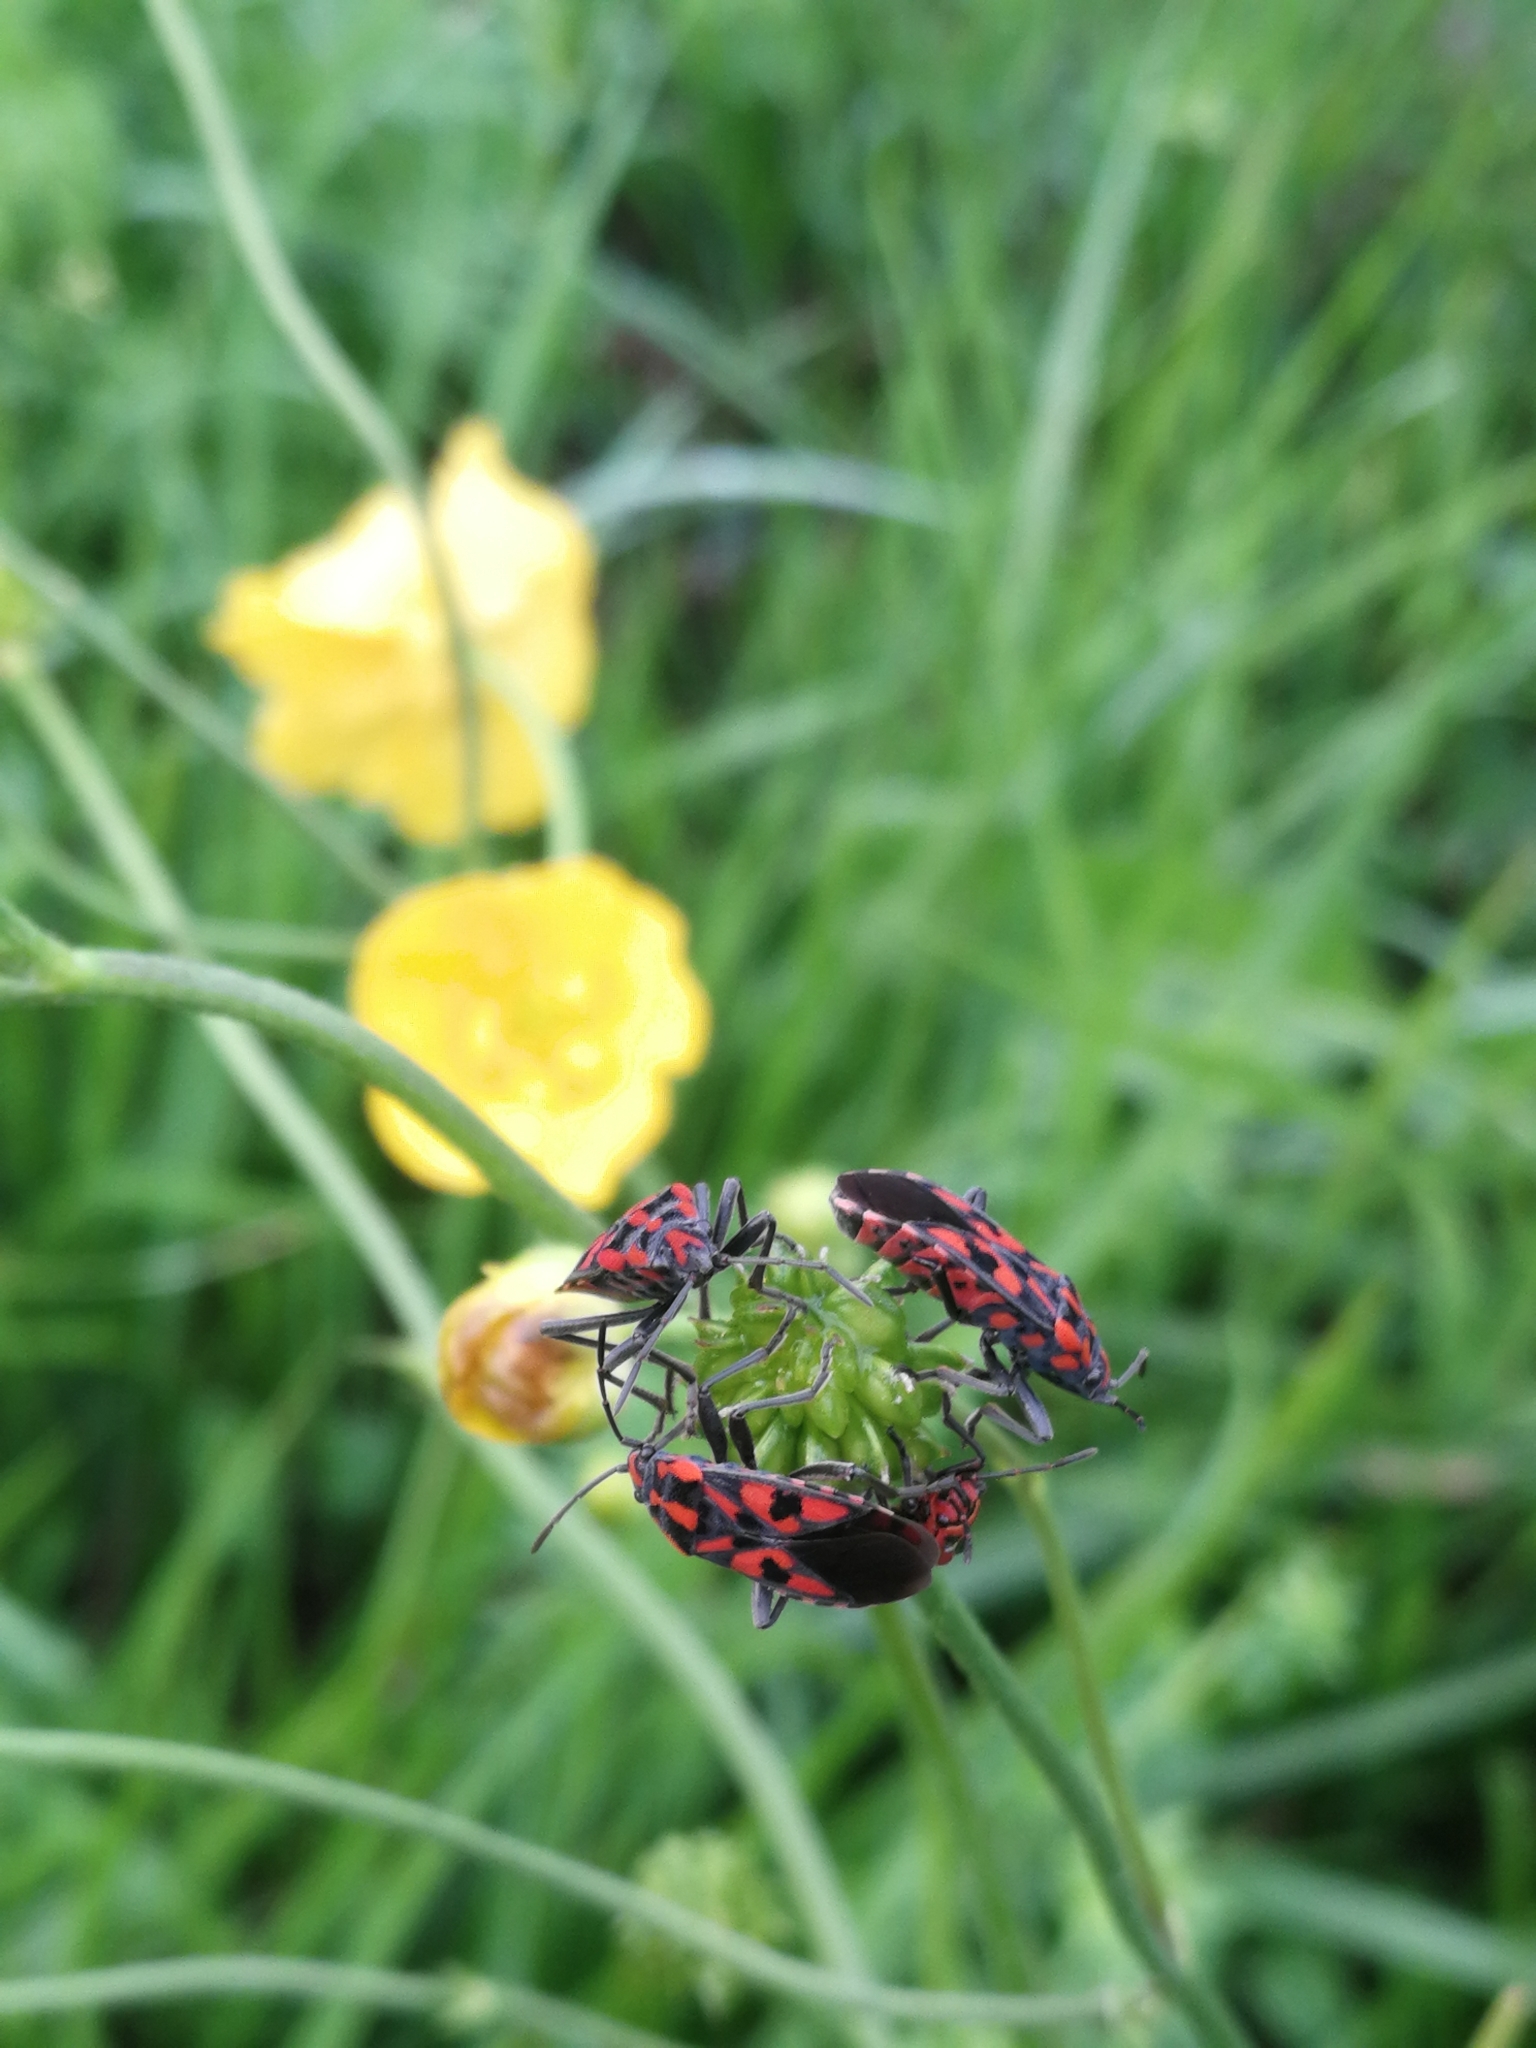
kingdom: Animalia
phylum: Arthropoda
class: Insecta
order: Hemiptera
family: Lygaeidae
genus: Spilostethus
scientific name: Spilostethus saxatilis
